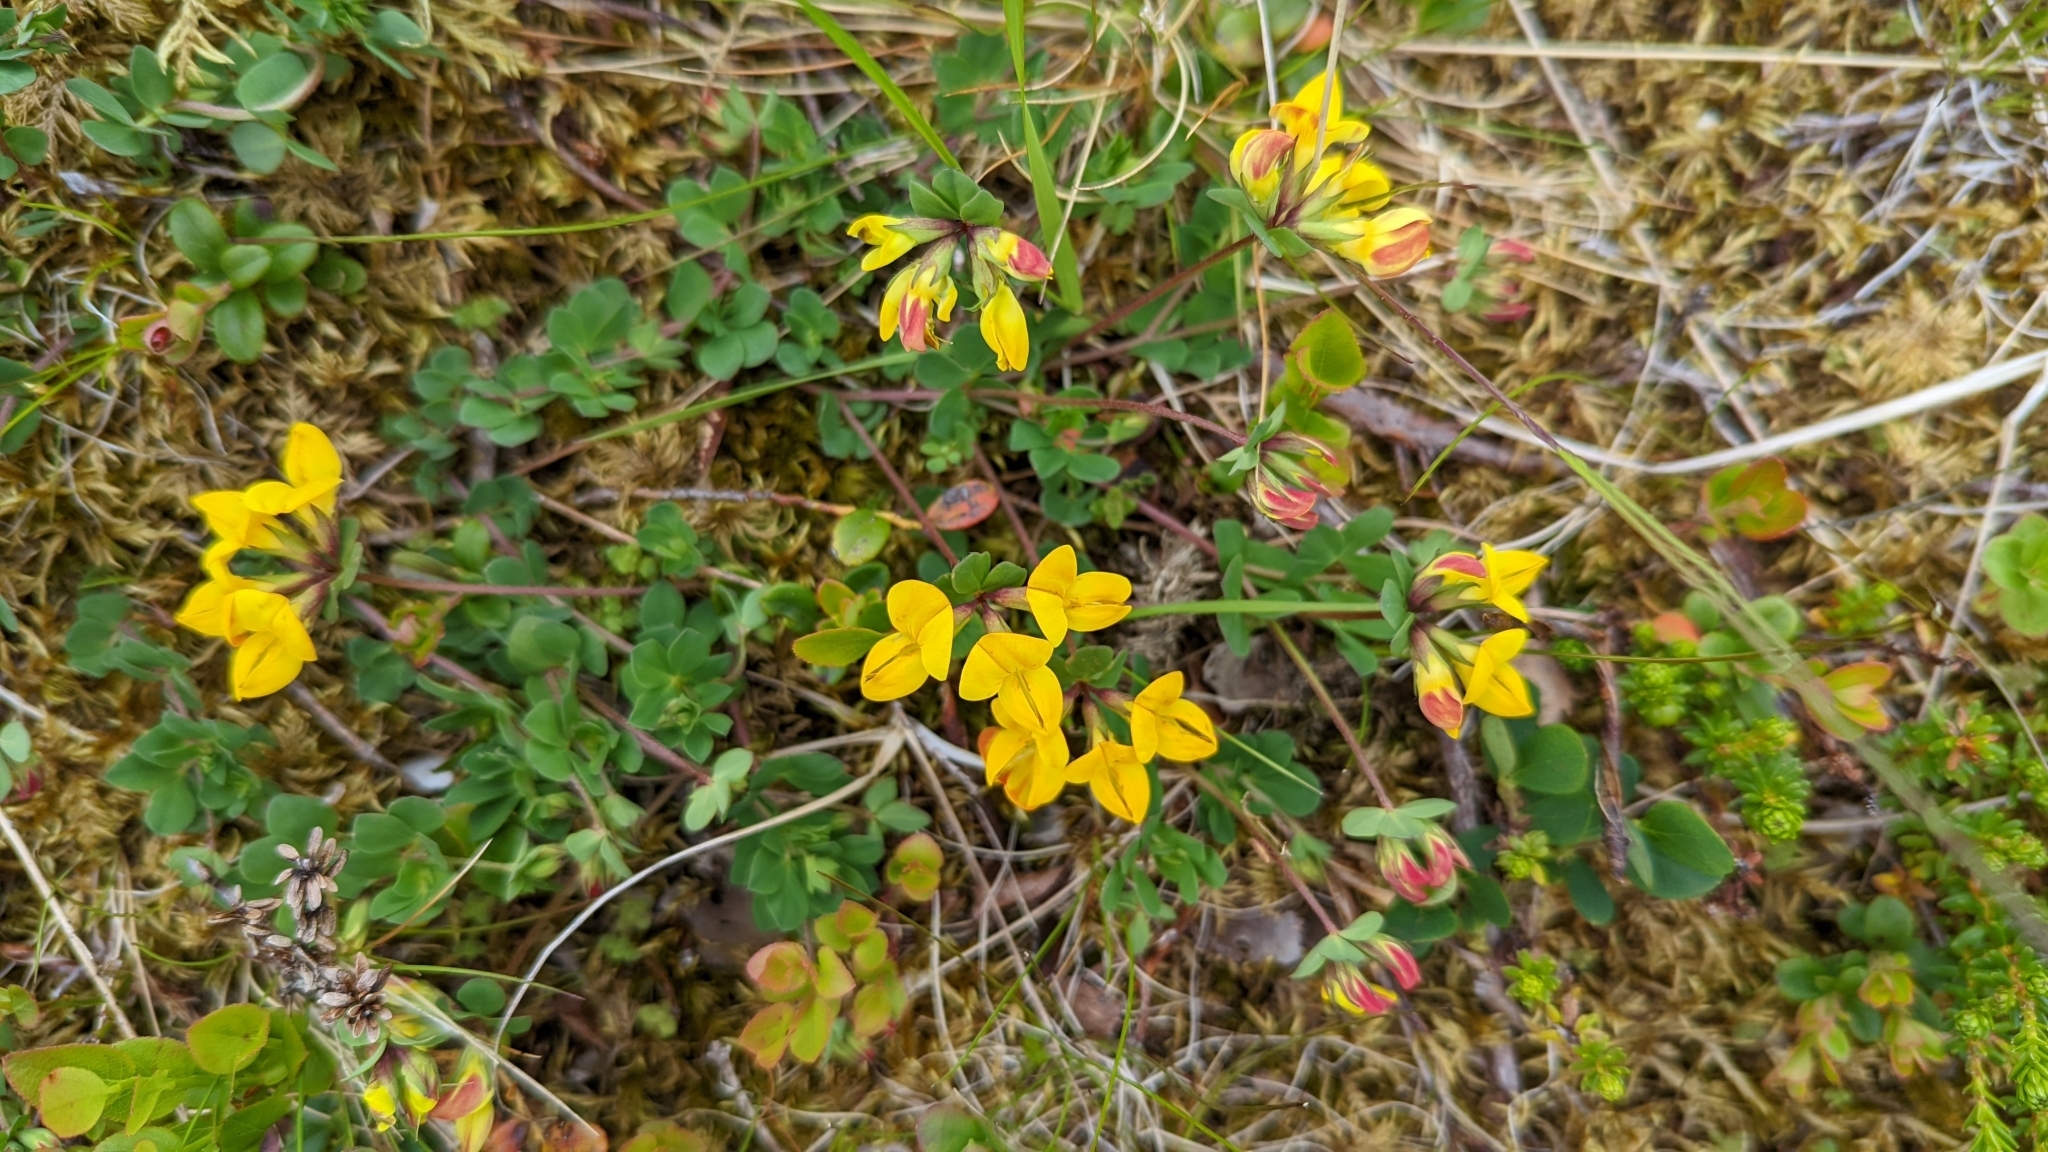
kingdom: Plantae
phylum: Tracheophyta
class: Magnoliopsida
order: Fabales
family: Fabaceae
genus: Lotus
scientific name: Lotus corniculatus
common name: Common bird's-foot-trefoil
